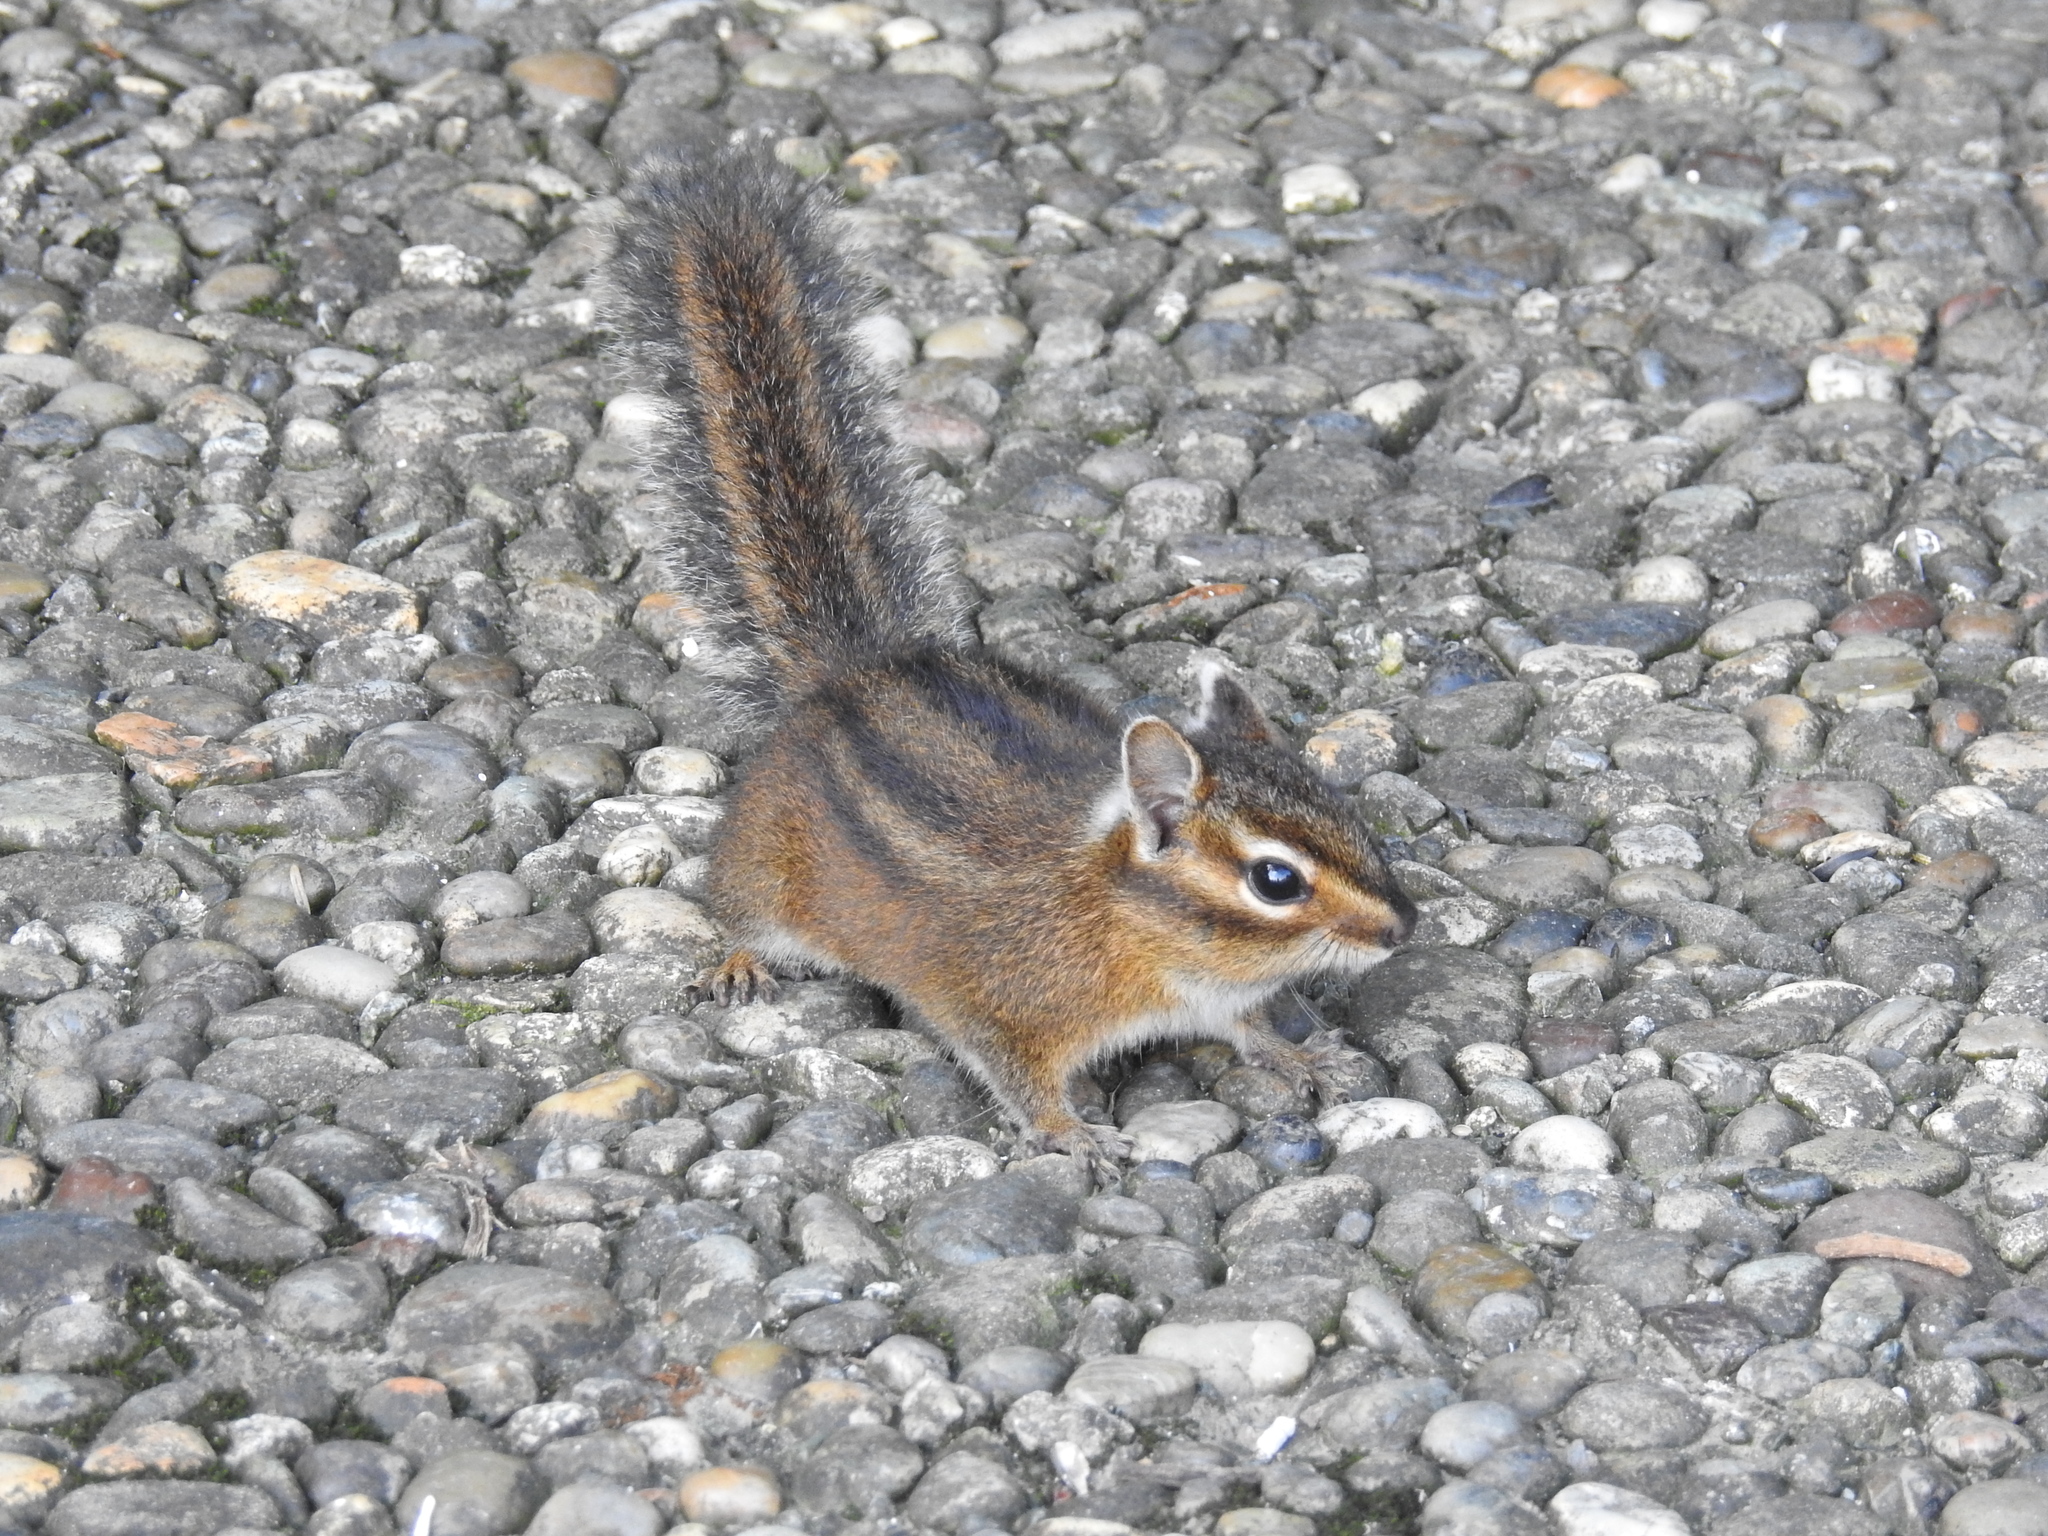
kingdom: Animalia
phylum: Chordata
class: Mammalia
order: Rodentia
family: Sciuridae
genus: Tamias
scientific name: Tamias townsendii
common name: Townsend's chipmunk
